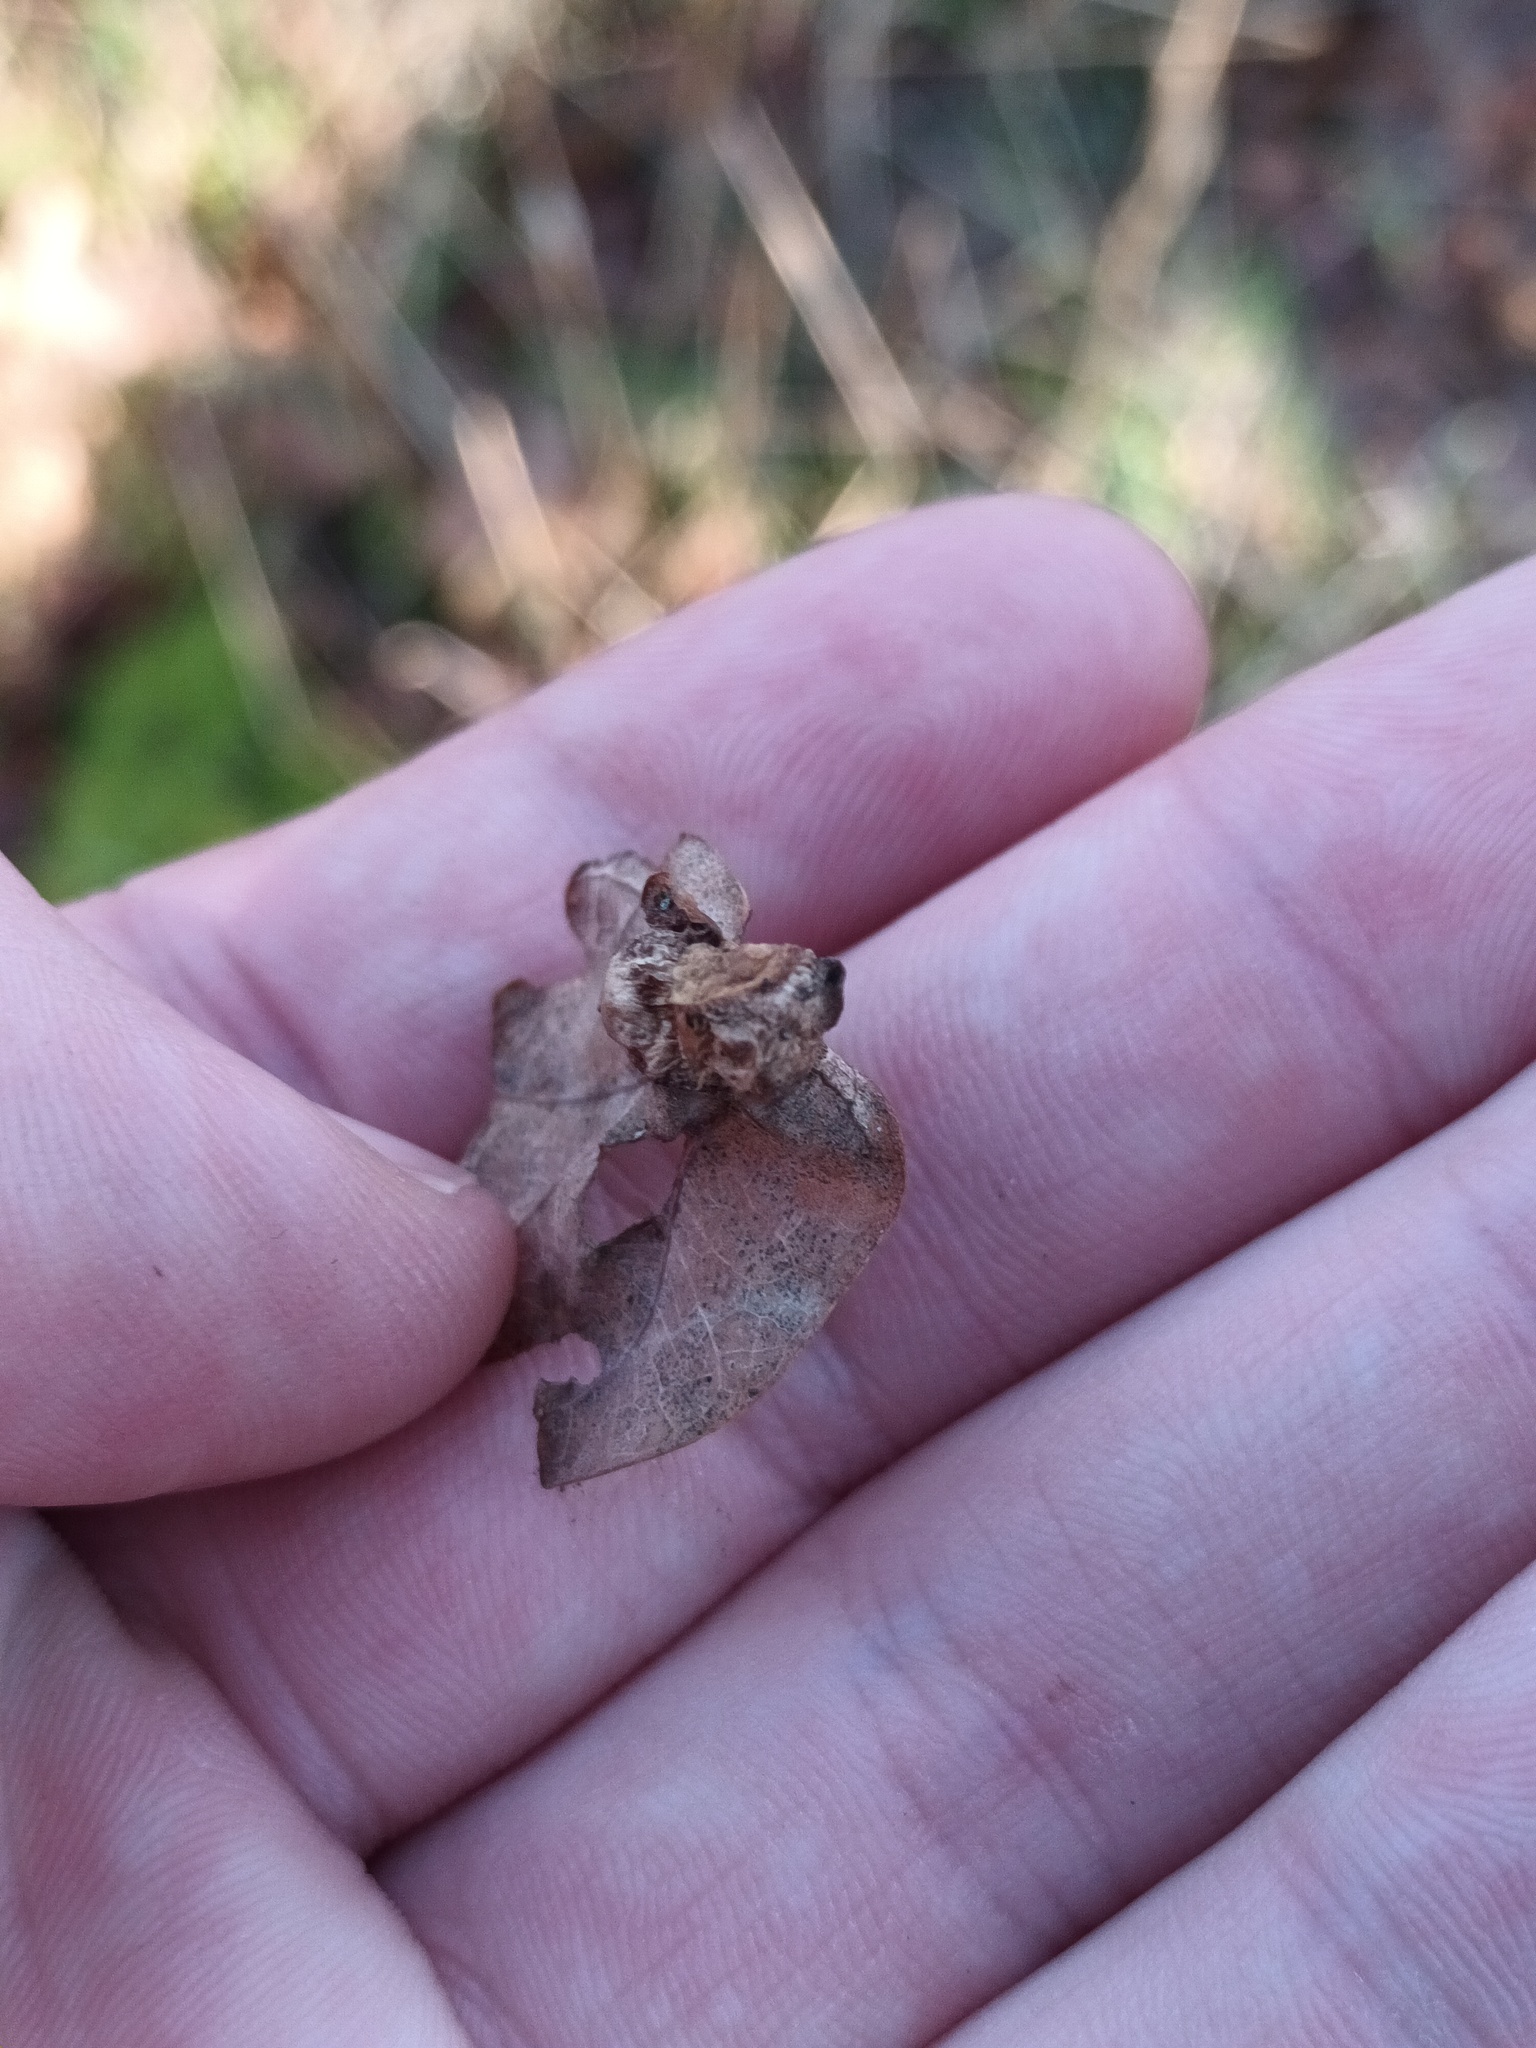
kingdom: Animalia
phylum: Arthropoda
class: Insecta
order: Hymenoptera
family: Cynipidae
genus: Andricus
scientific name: Andricus curvator
